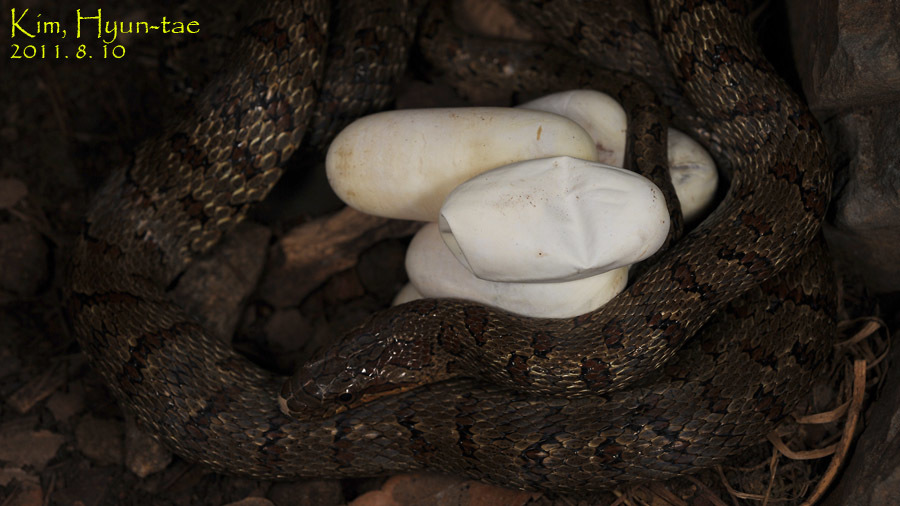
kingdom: Animalia
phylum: Chordata
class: Squamata
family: Colubridae
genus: Elaphe
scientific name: Elaphe dione
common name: Dione ratsnake
